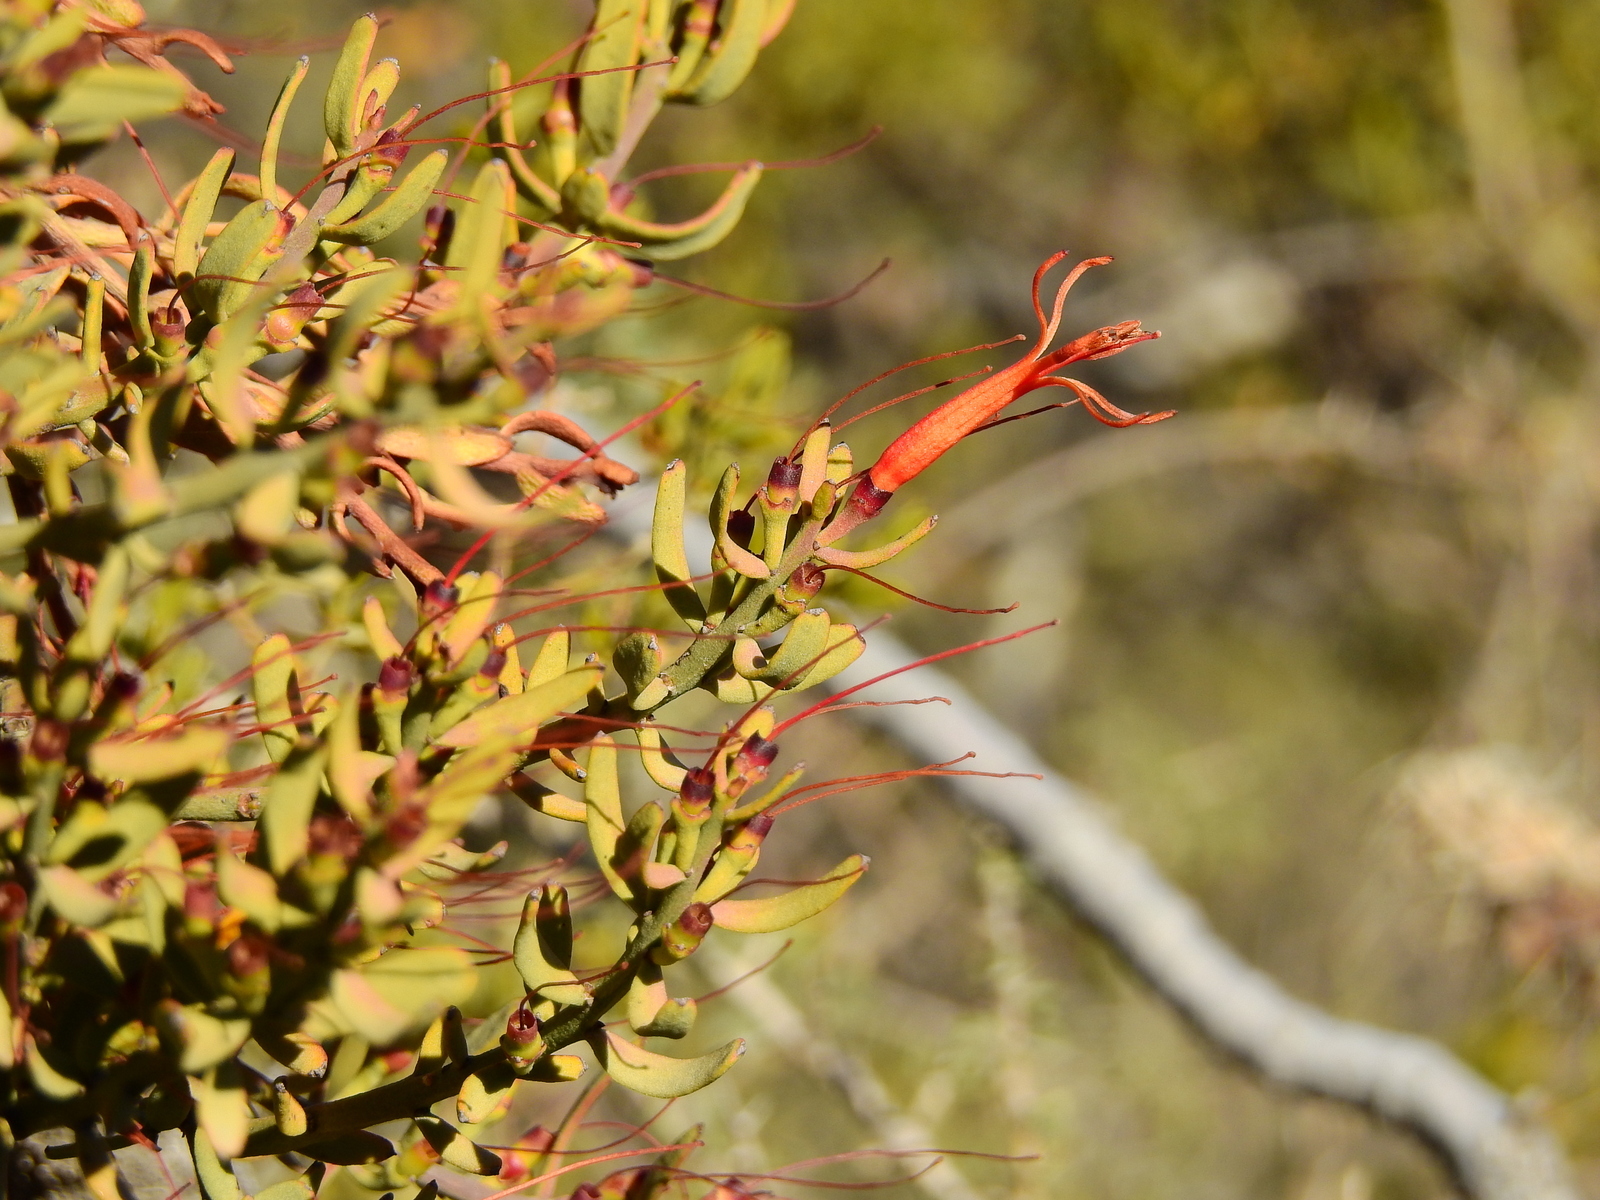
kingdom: Plantae
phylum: Tracheophyta
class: Magnoliopsida
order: Santalales
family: Loranthaceae
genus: Ligaria
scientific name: Ligaria cuneifolia
